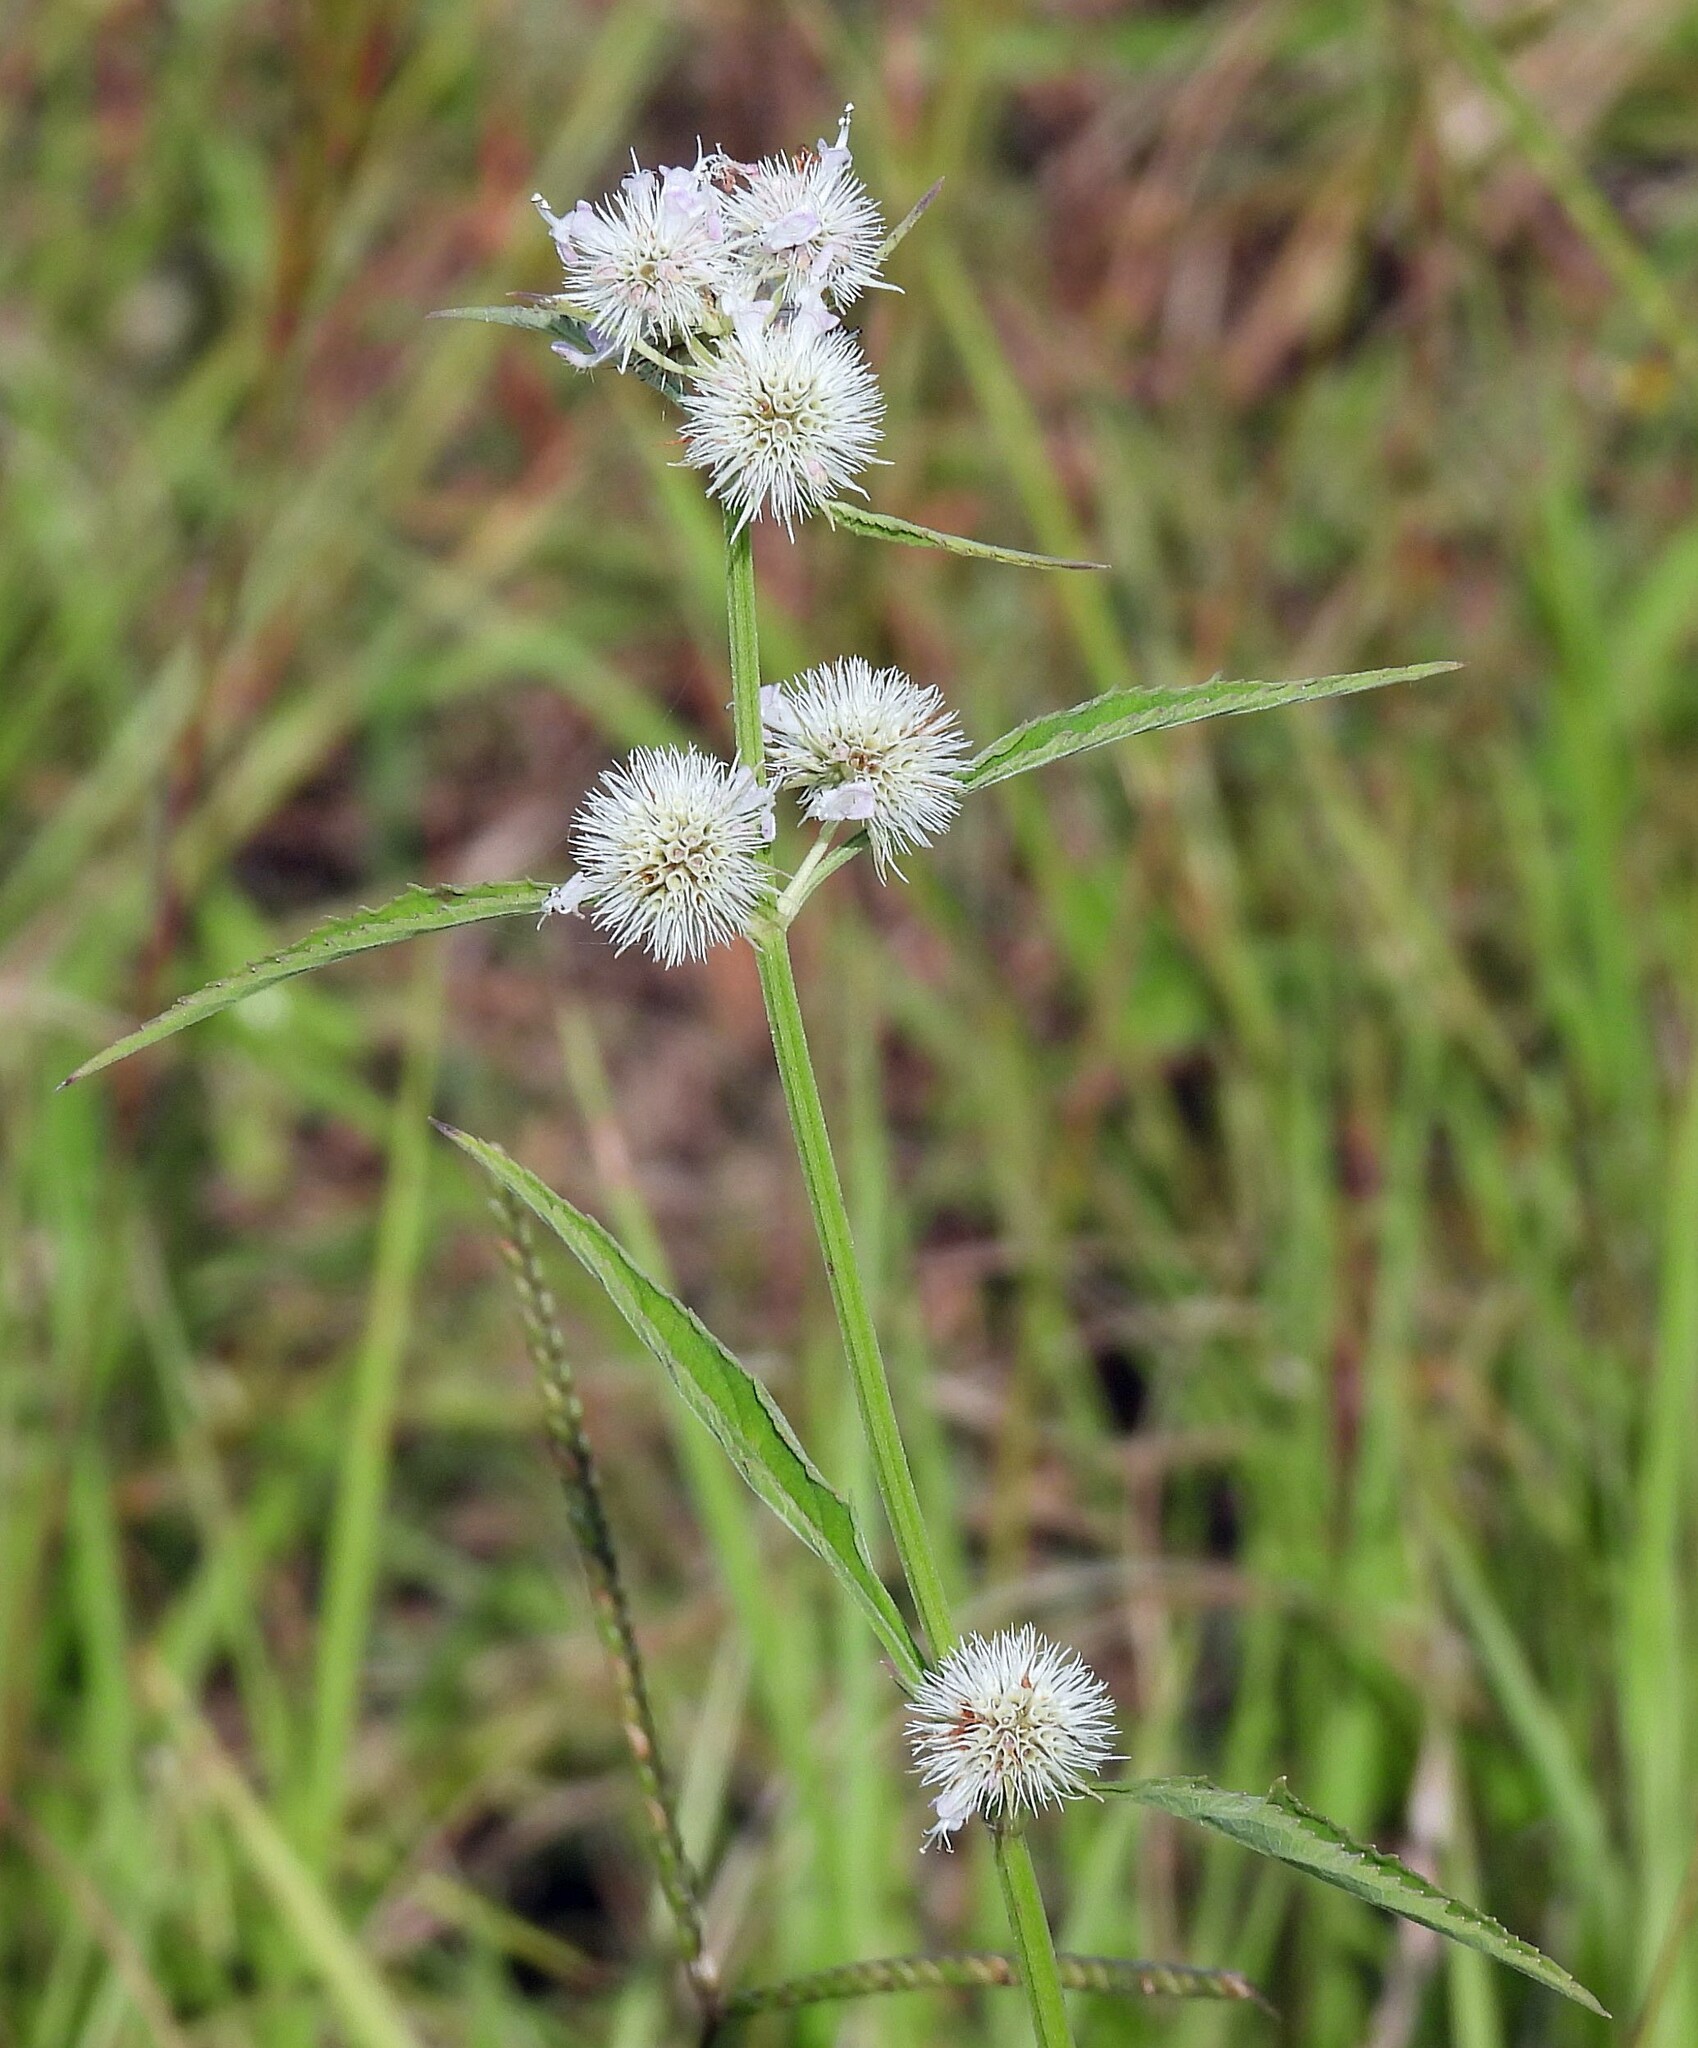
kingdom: Plantae
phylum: Tracheophyta
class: Magnoliopsida
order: Lamiales
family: Lamiaceae
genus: Hyptis
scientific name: Hyptis lappacea
